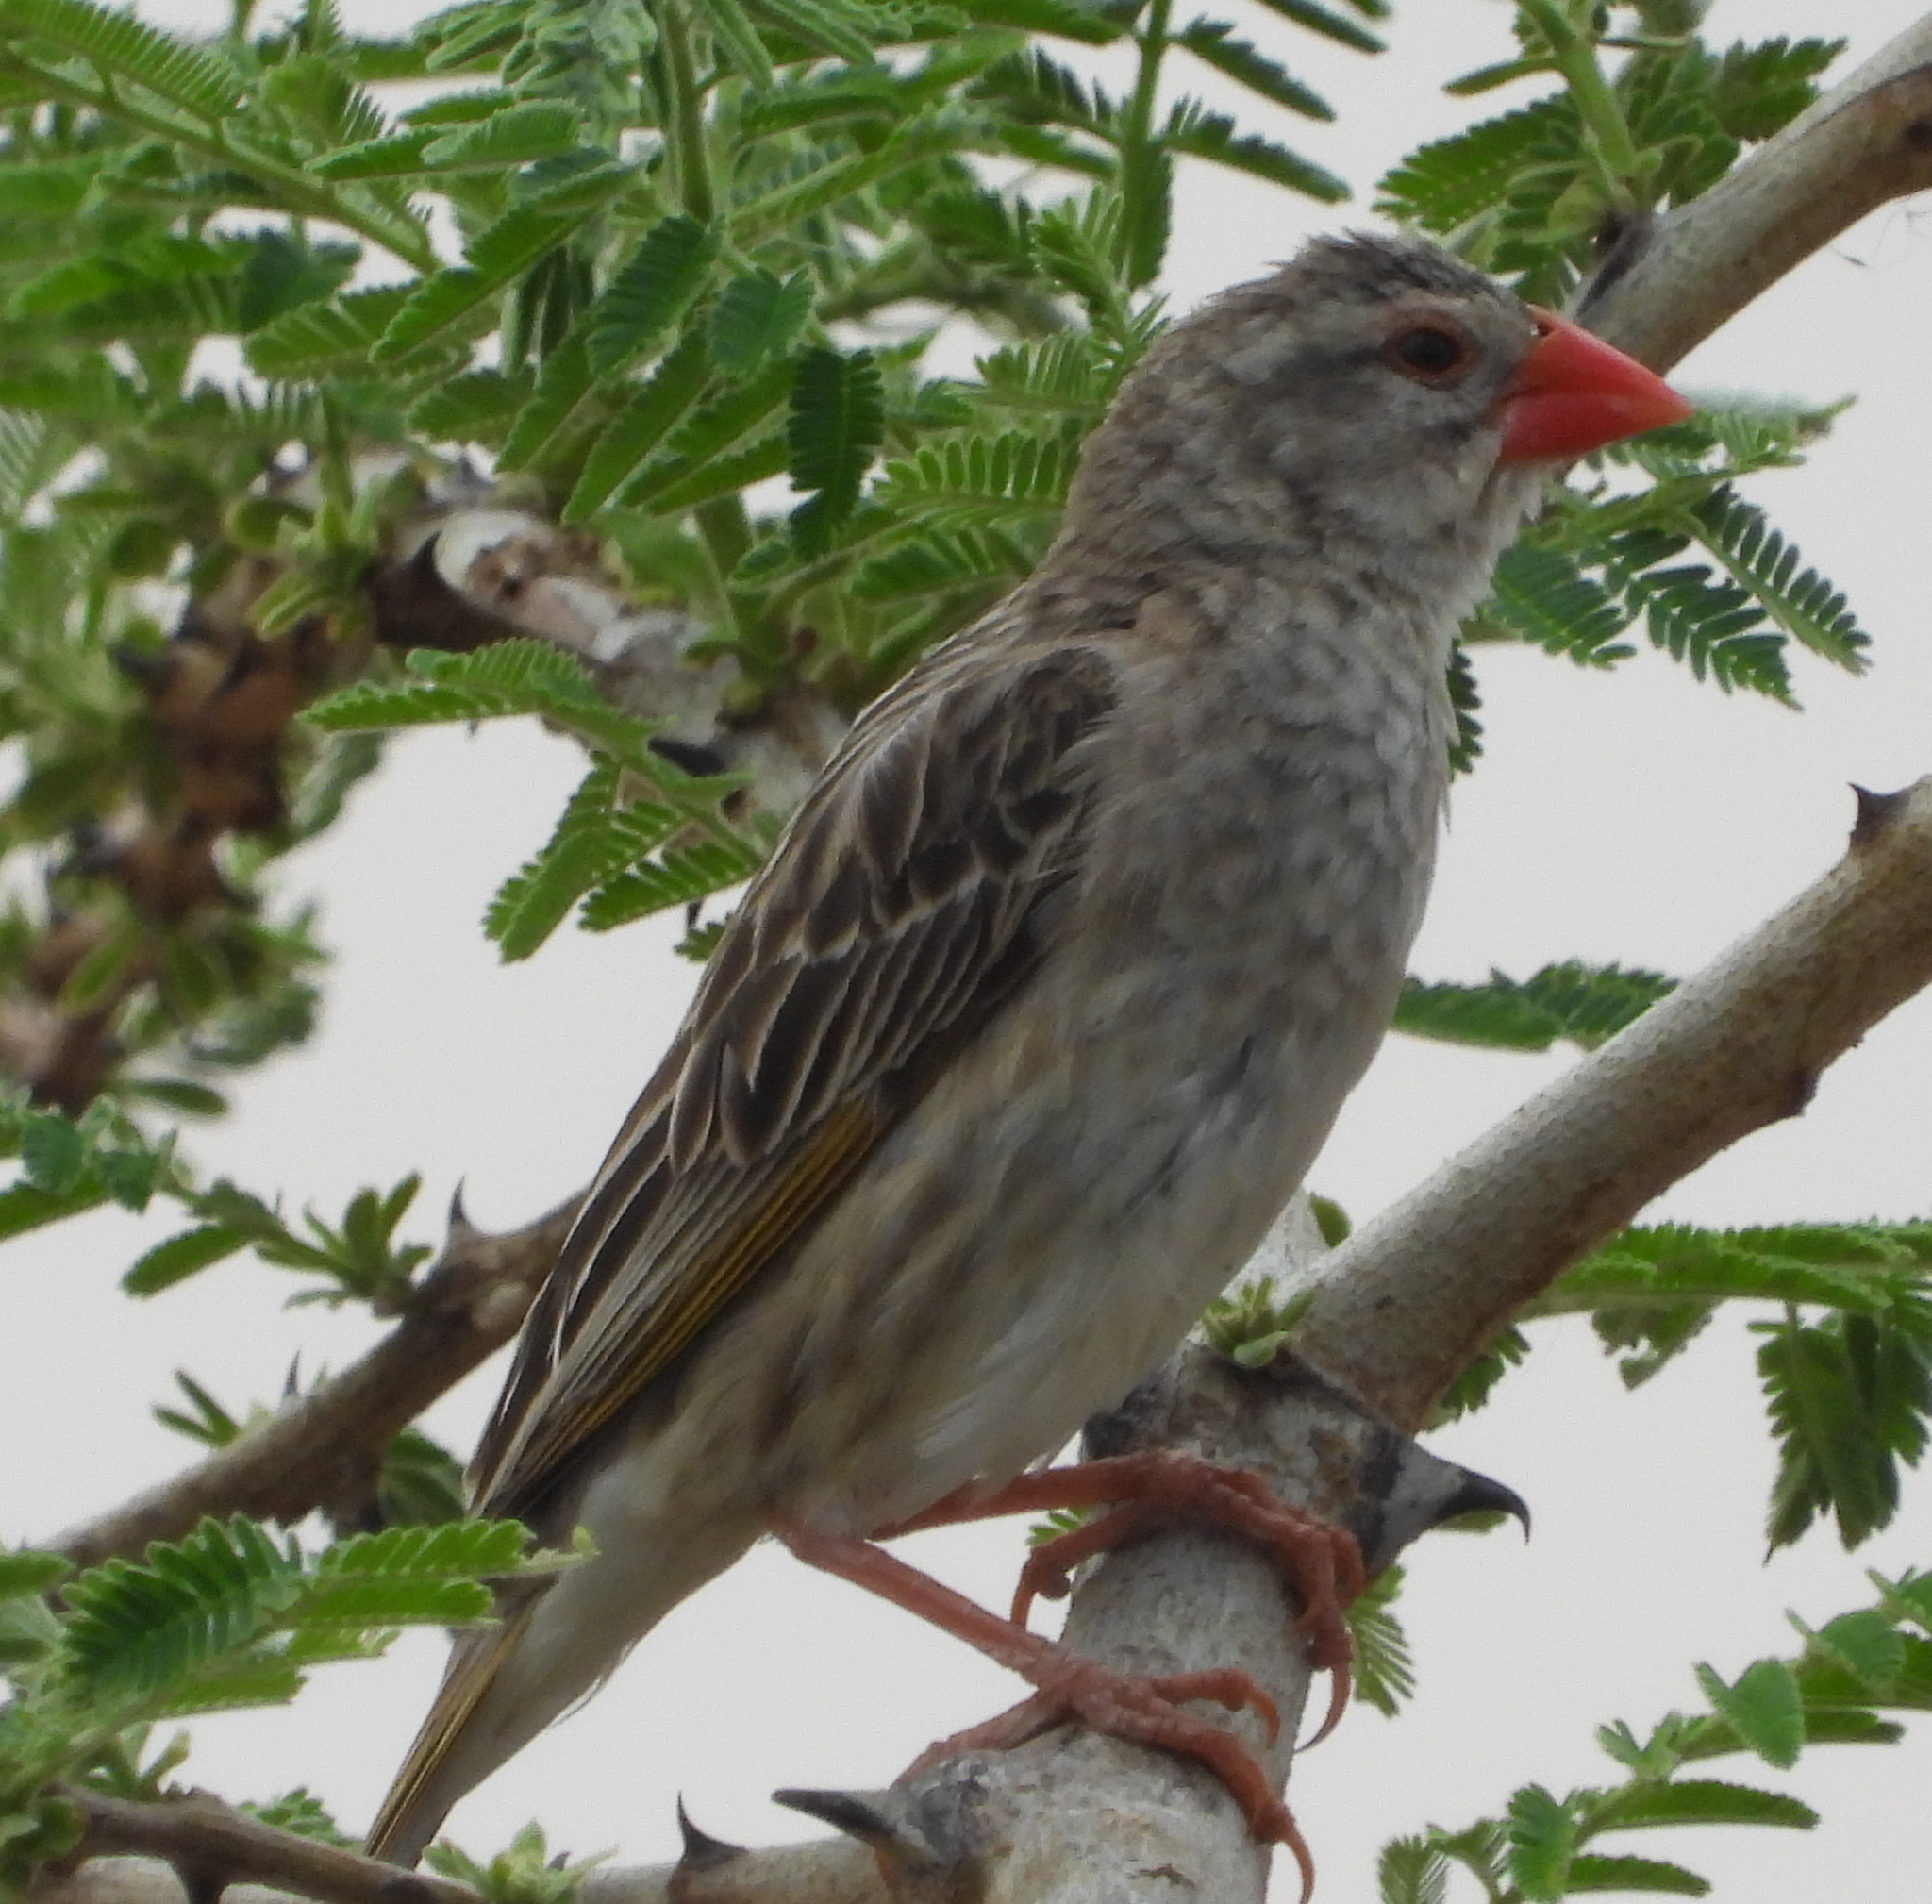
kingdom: Animalia
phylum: Chordata
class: Aves
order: Passeriformes
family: Ploceidae
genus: Quelea
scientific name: Quelea quelea
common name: Red-billed quelea
